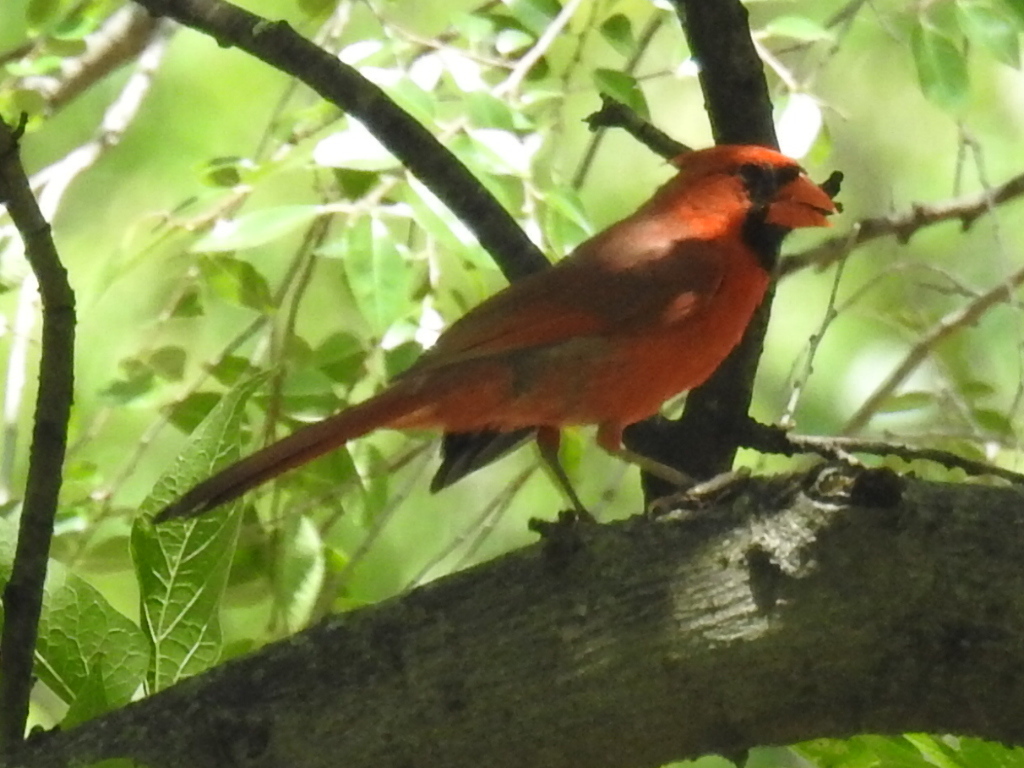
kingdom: Animalia
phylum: Chordata
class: Aves
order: Passeriformes
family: Cardinalidae
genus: Cardinalis
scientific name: Cardinalis cardinalis
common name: Northern cardinal
